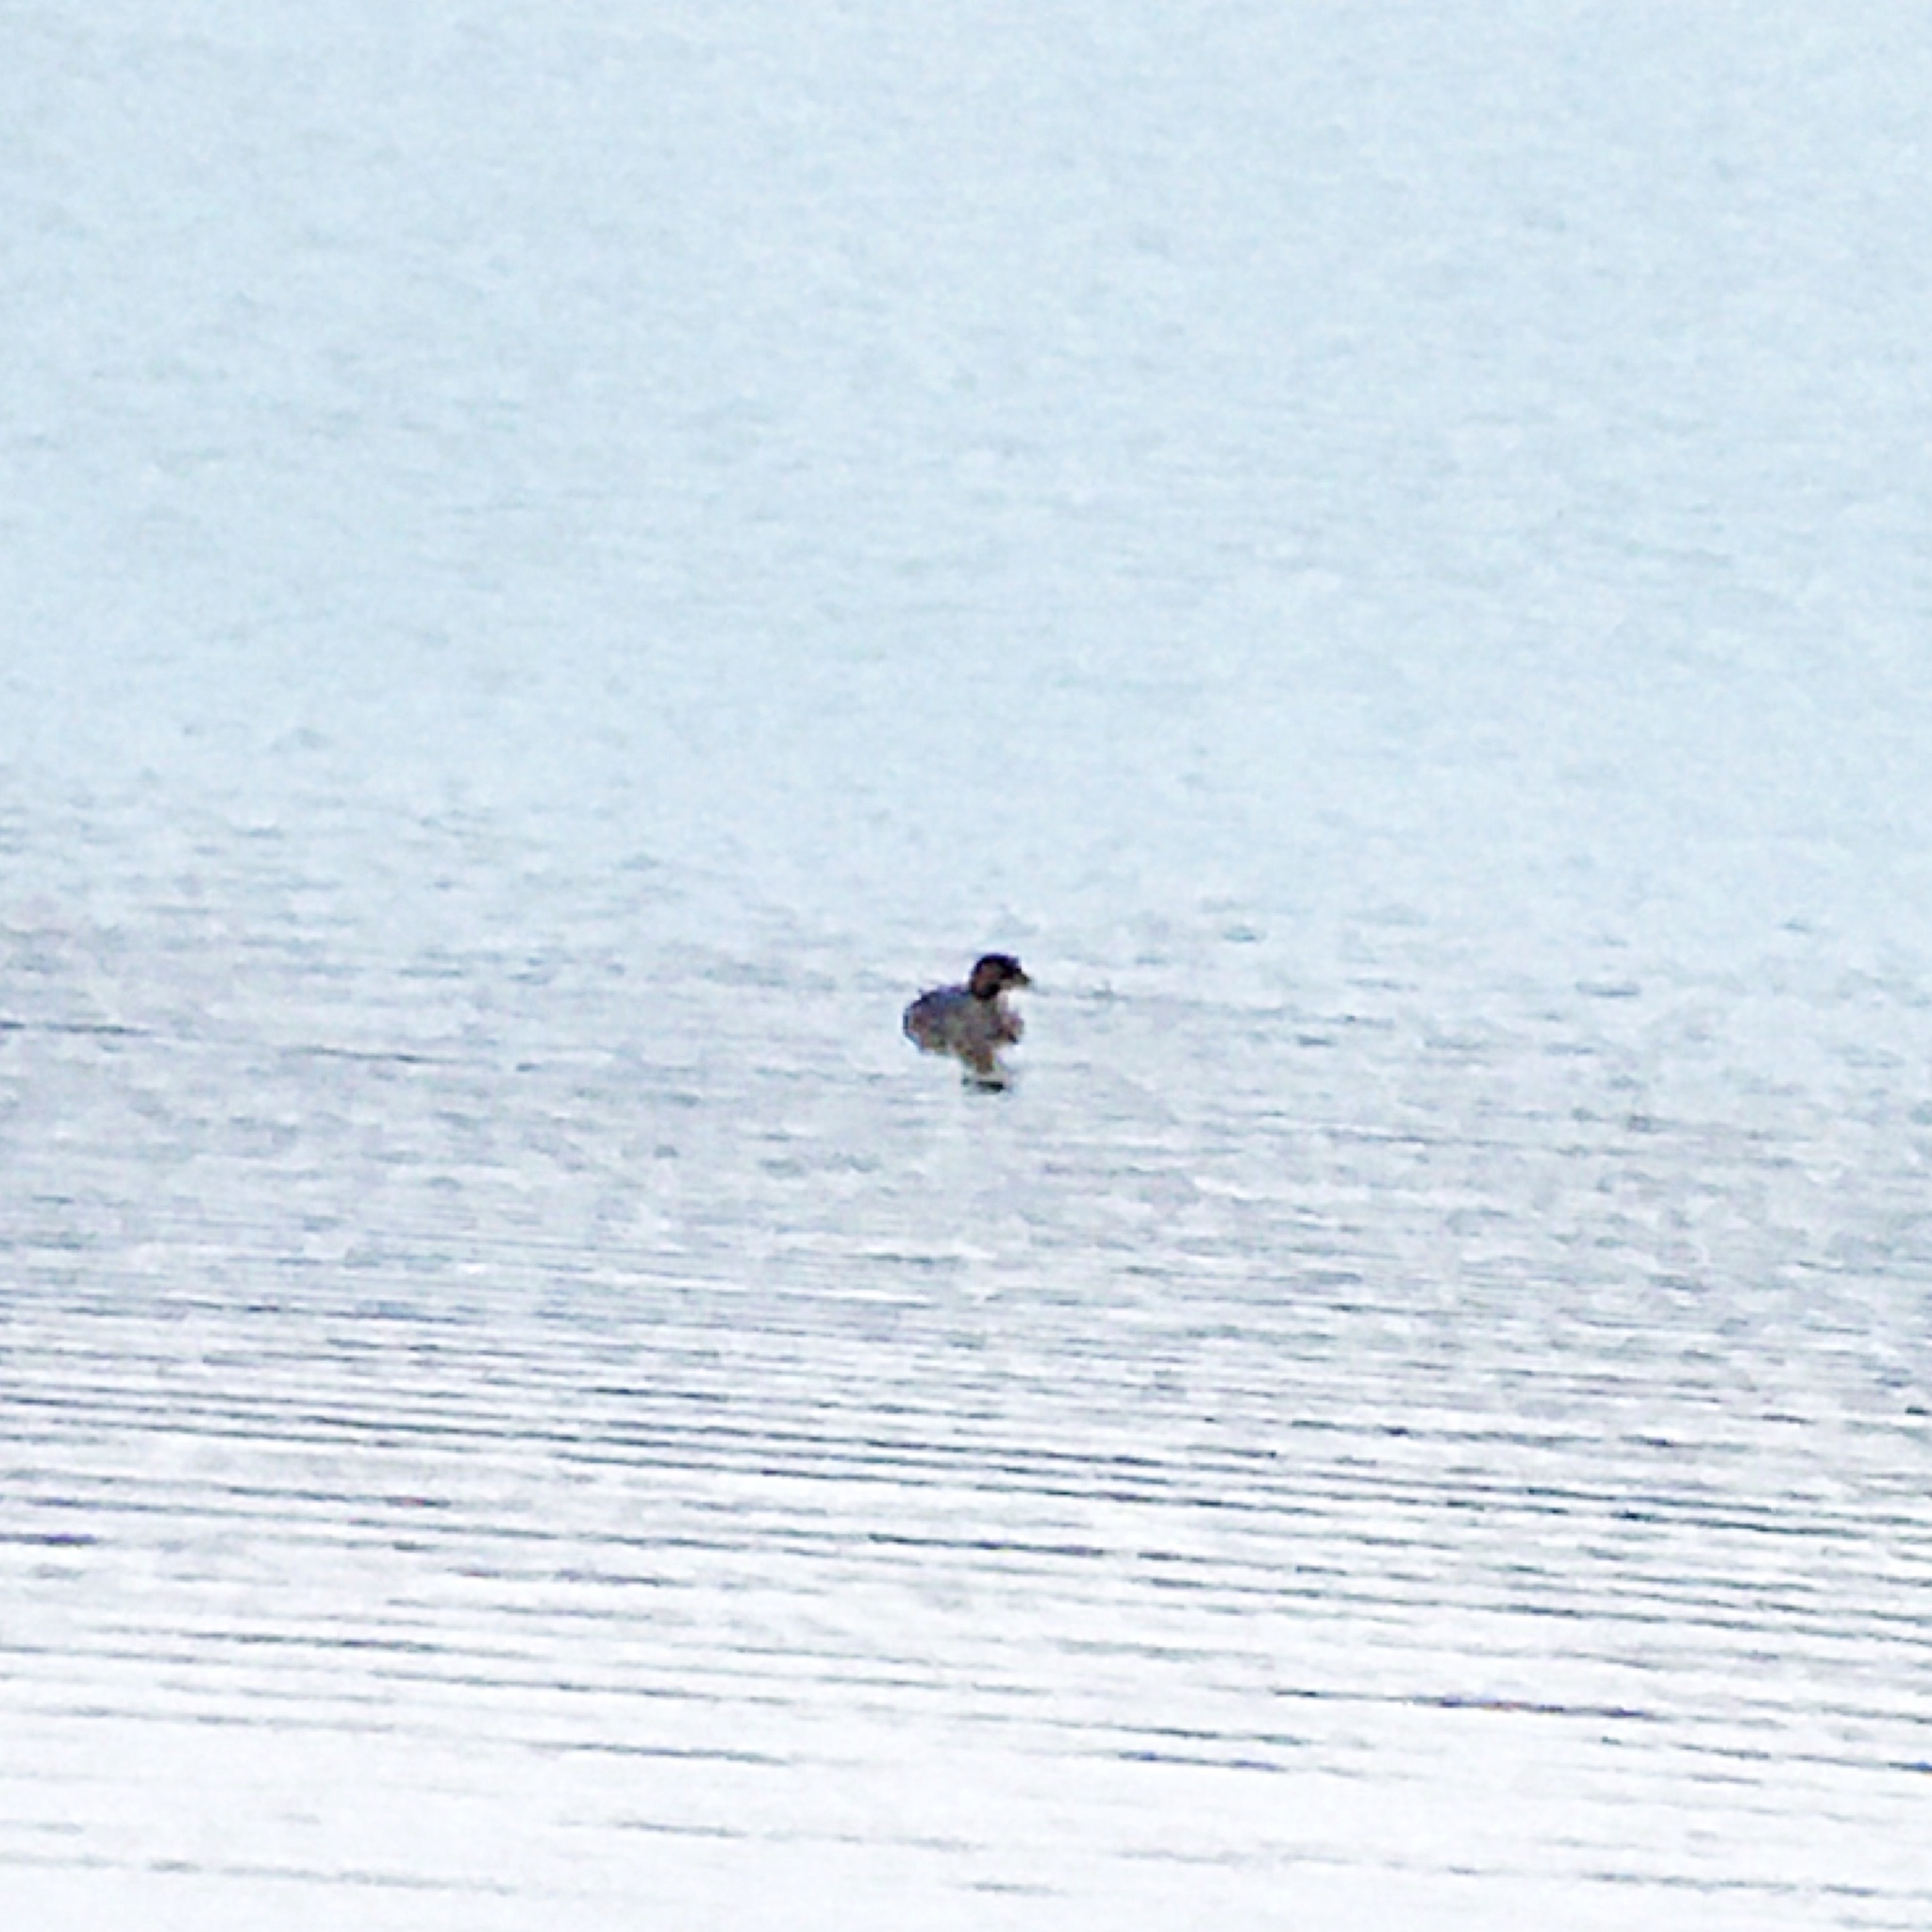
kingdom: Animalia
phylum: Chordata
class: Aves
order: Podicipediformes
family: Podicipedidae
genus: Podilymbus
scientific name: Podilymbus podiceps
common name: Pied-billed grebe
